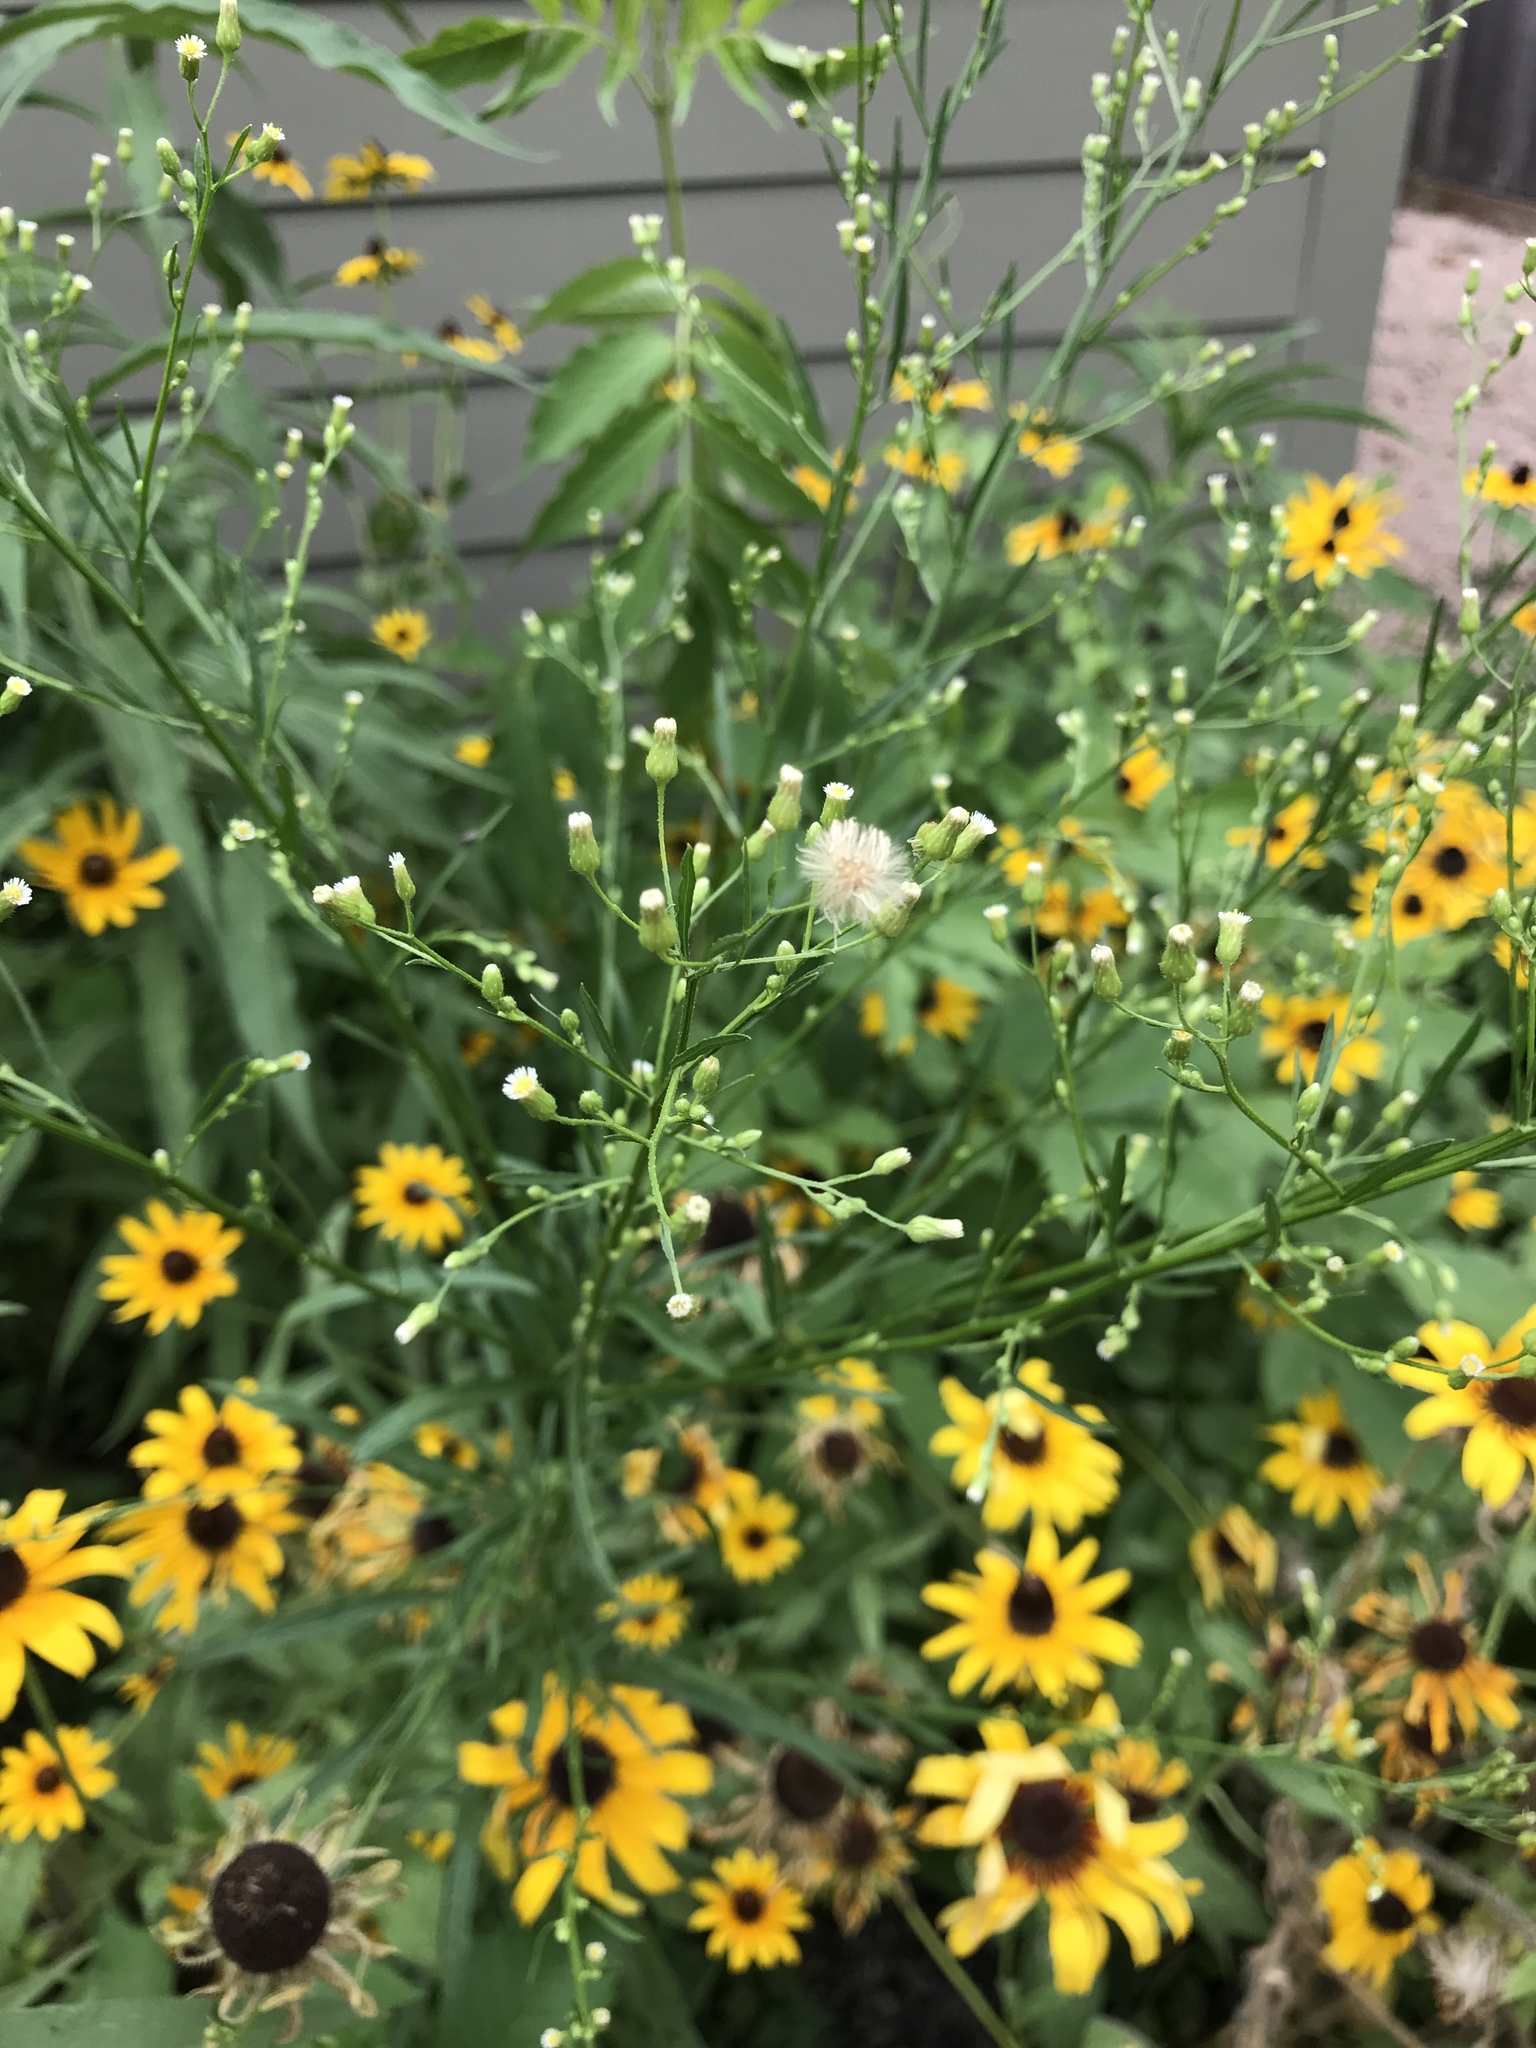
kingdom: Plantae
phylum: Tracheophyta
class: Magnoliopsida
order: Asterales
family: Asteraceae
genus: Erigeron
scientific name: Erigeron canadensis
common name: Canadian fleabane
